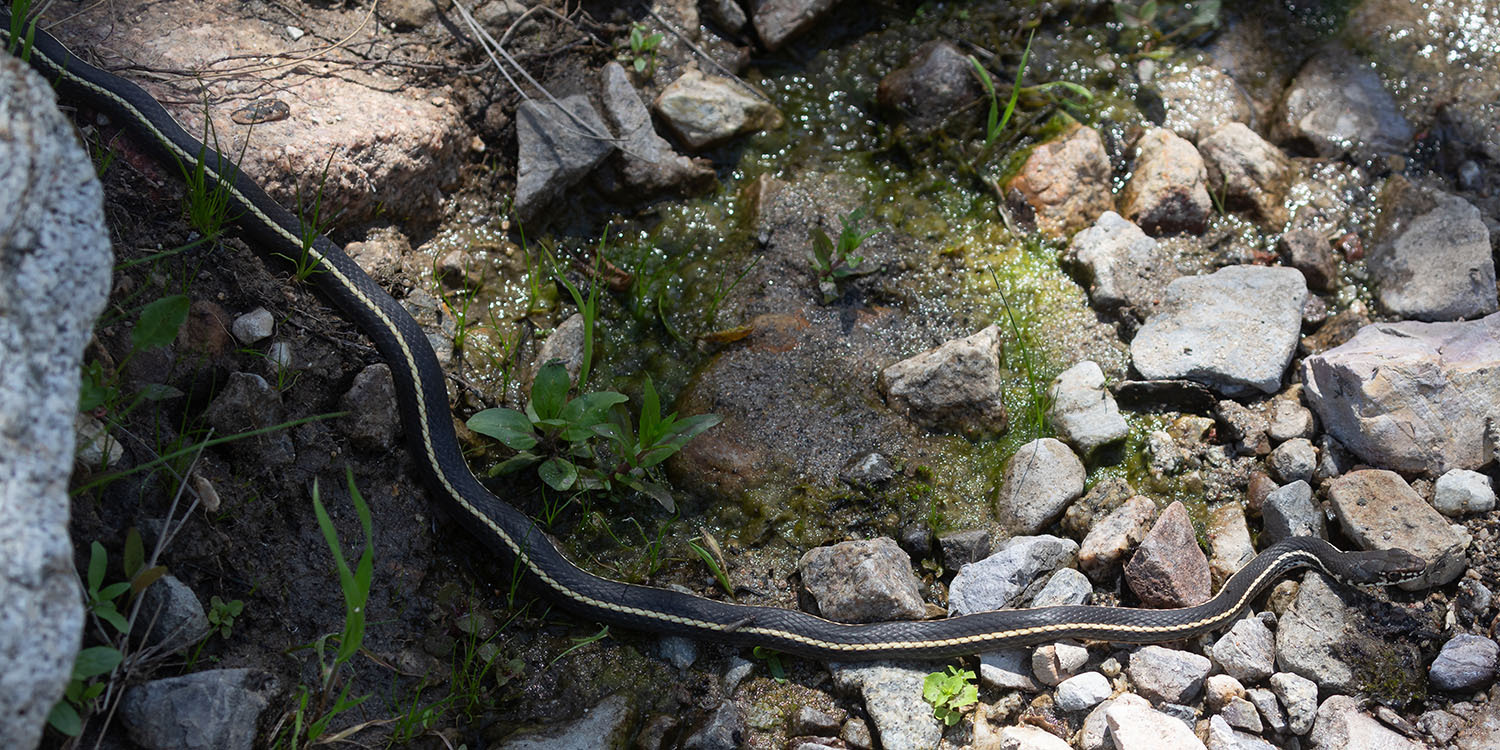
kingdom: Animalia
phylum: Chordata
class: Squamata
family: Colubridae
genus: Masticophis
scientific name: Masticophis lateralis
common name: Striped racer
